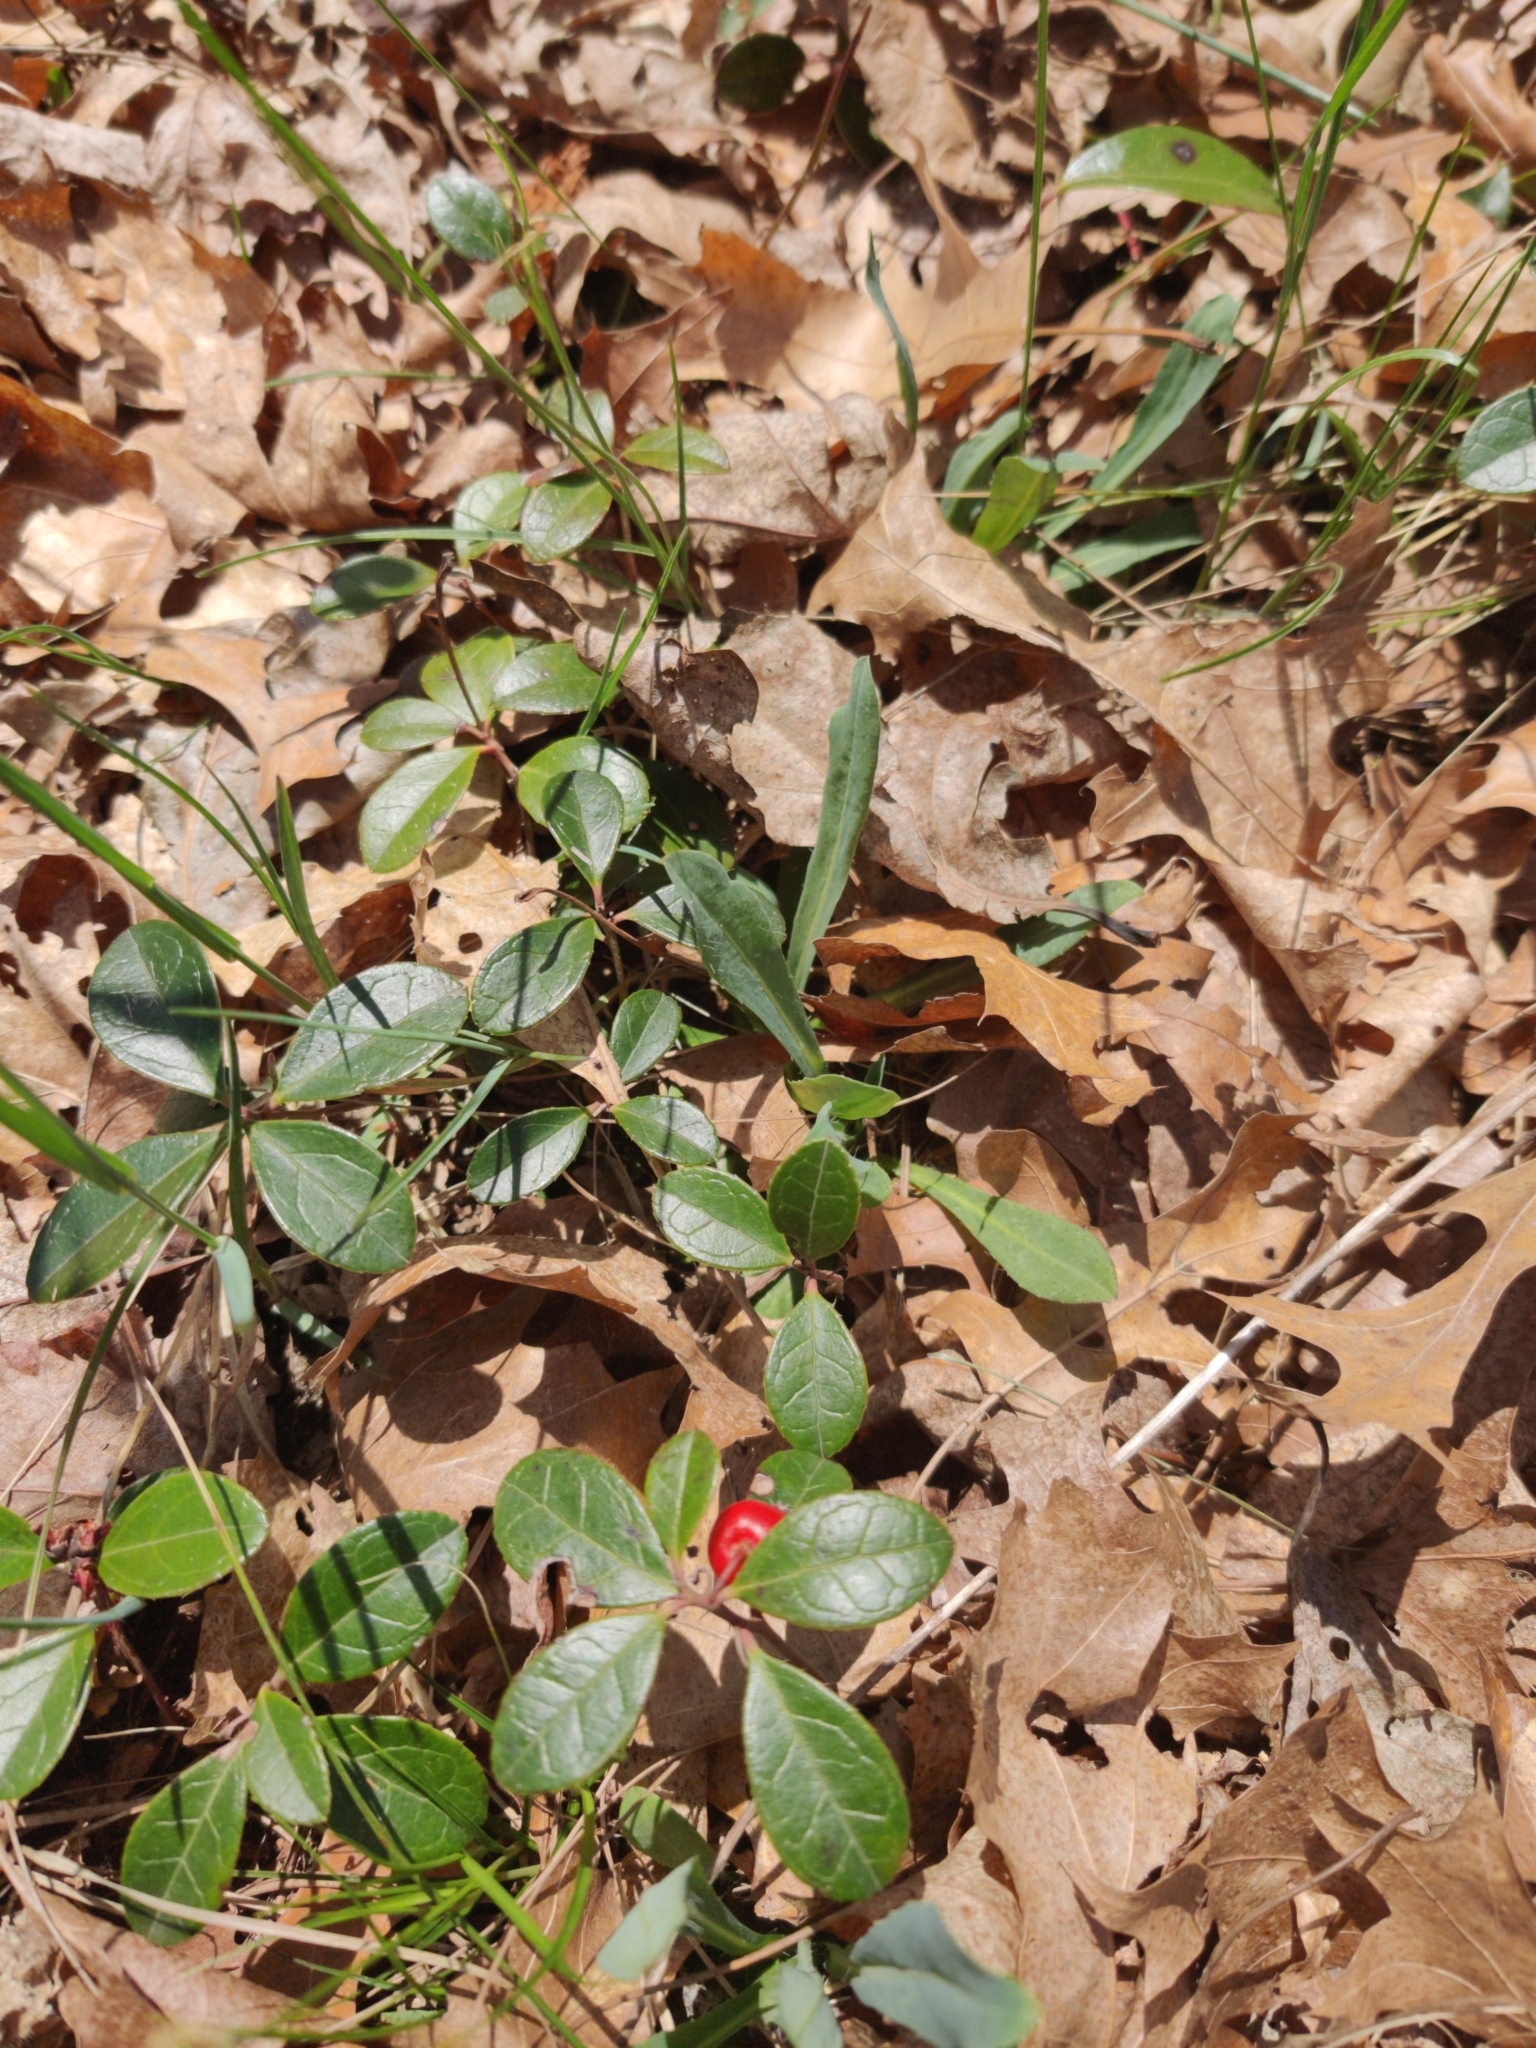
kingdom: Plantae
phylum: Tracheophyta
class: Magnoliopsida
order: Ericales
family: Ericaceae
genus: Gaultheria
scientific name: Gaultheria procumbens
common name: Checkerberry
